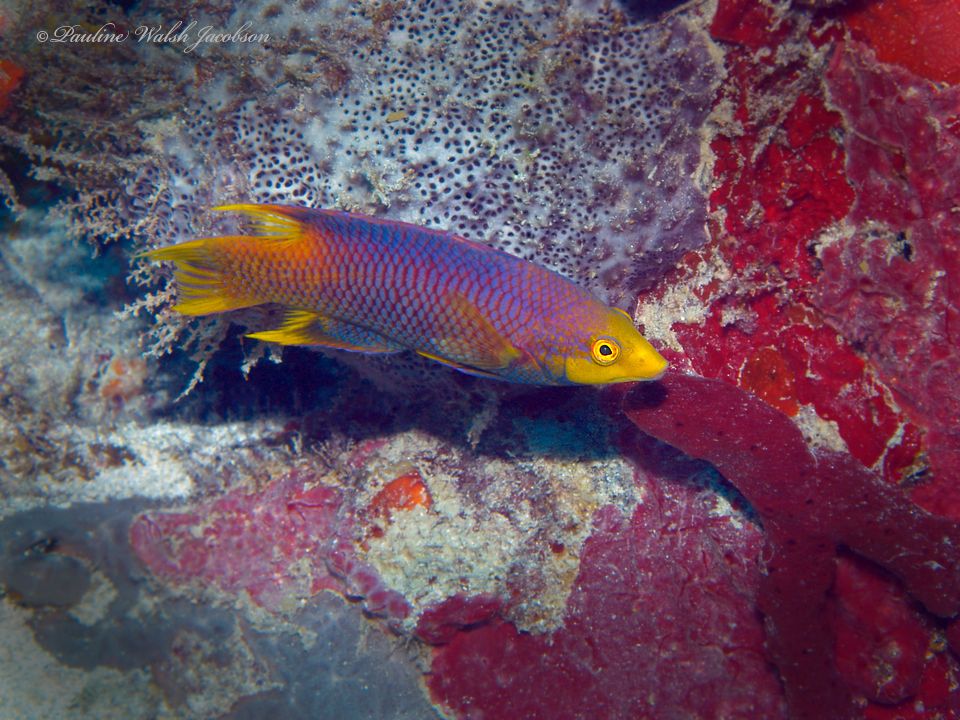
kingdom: Animalia
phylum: Chordata
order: Perciformes
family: Labridae
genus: Bodianus
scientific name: Bodianus rufus
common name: Spanish hogfish
